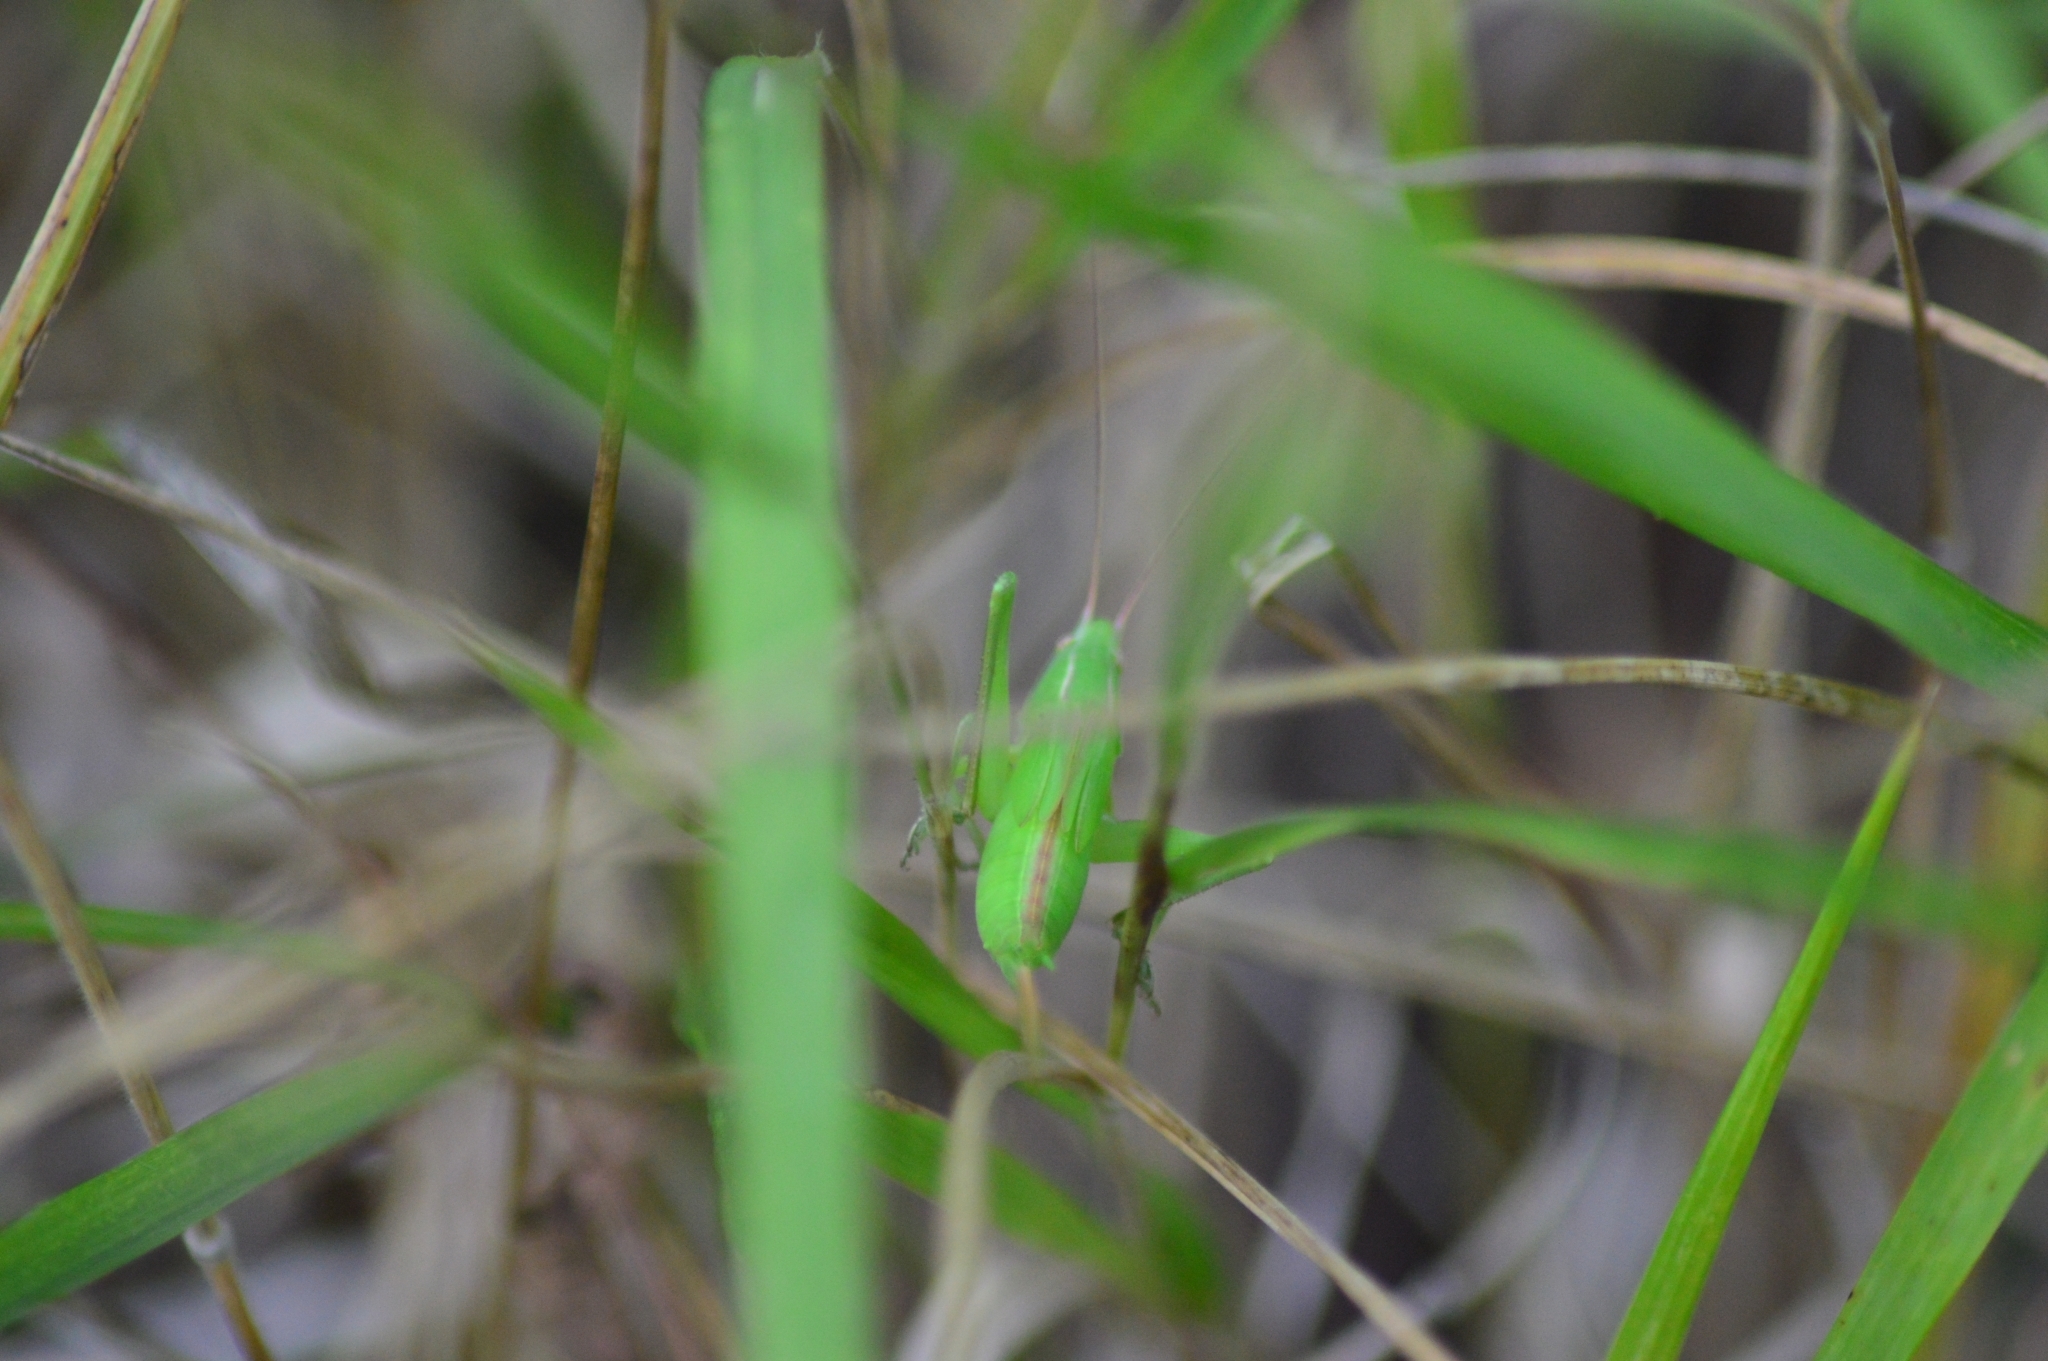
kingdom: Animalia
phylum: Arthropoda
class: Insecta
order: Orthoptera
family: Tettigoniidae
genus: Ruspolia
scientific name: Ruspolia nitidula
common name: Large conehead
